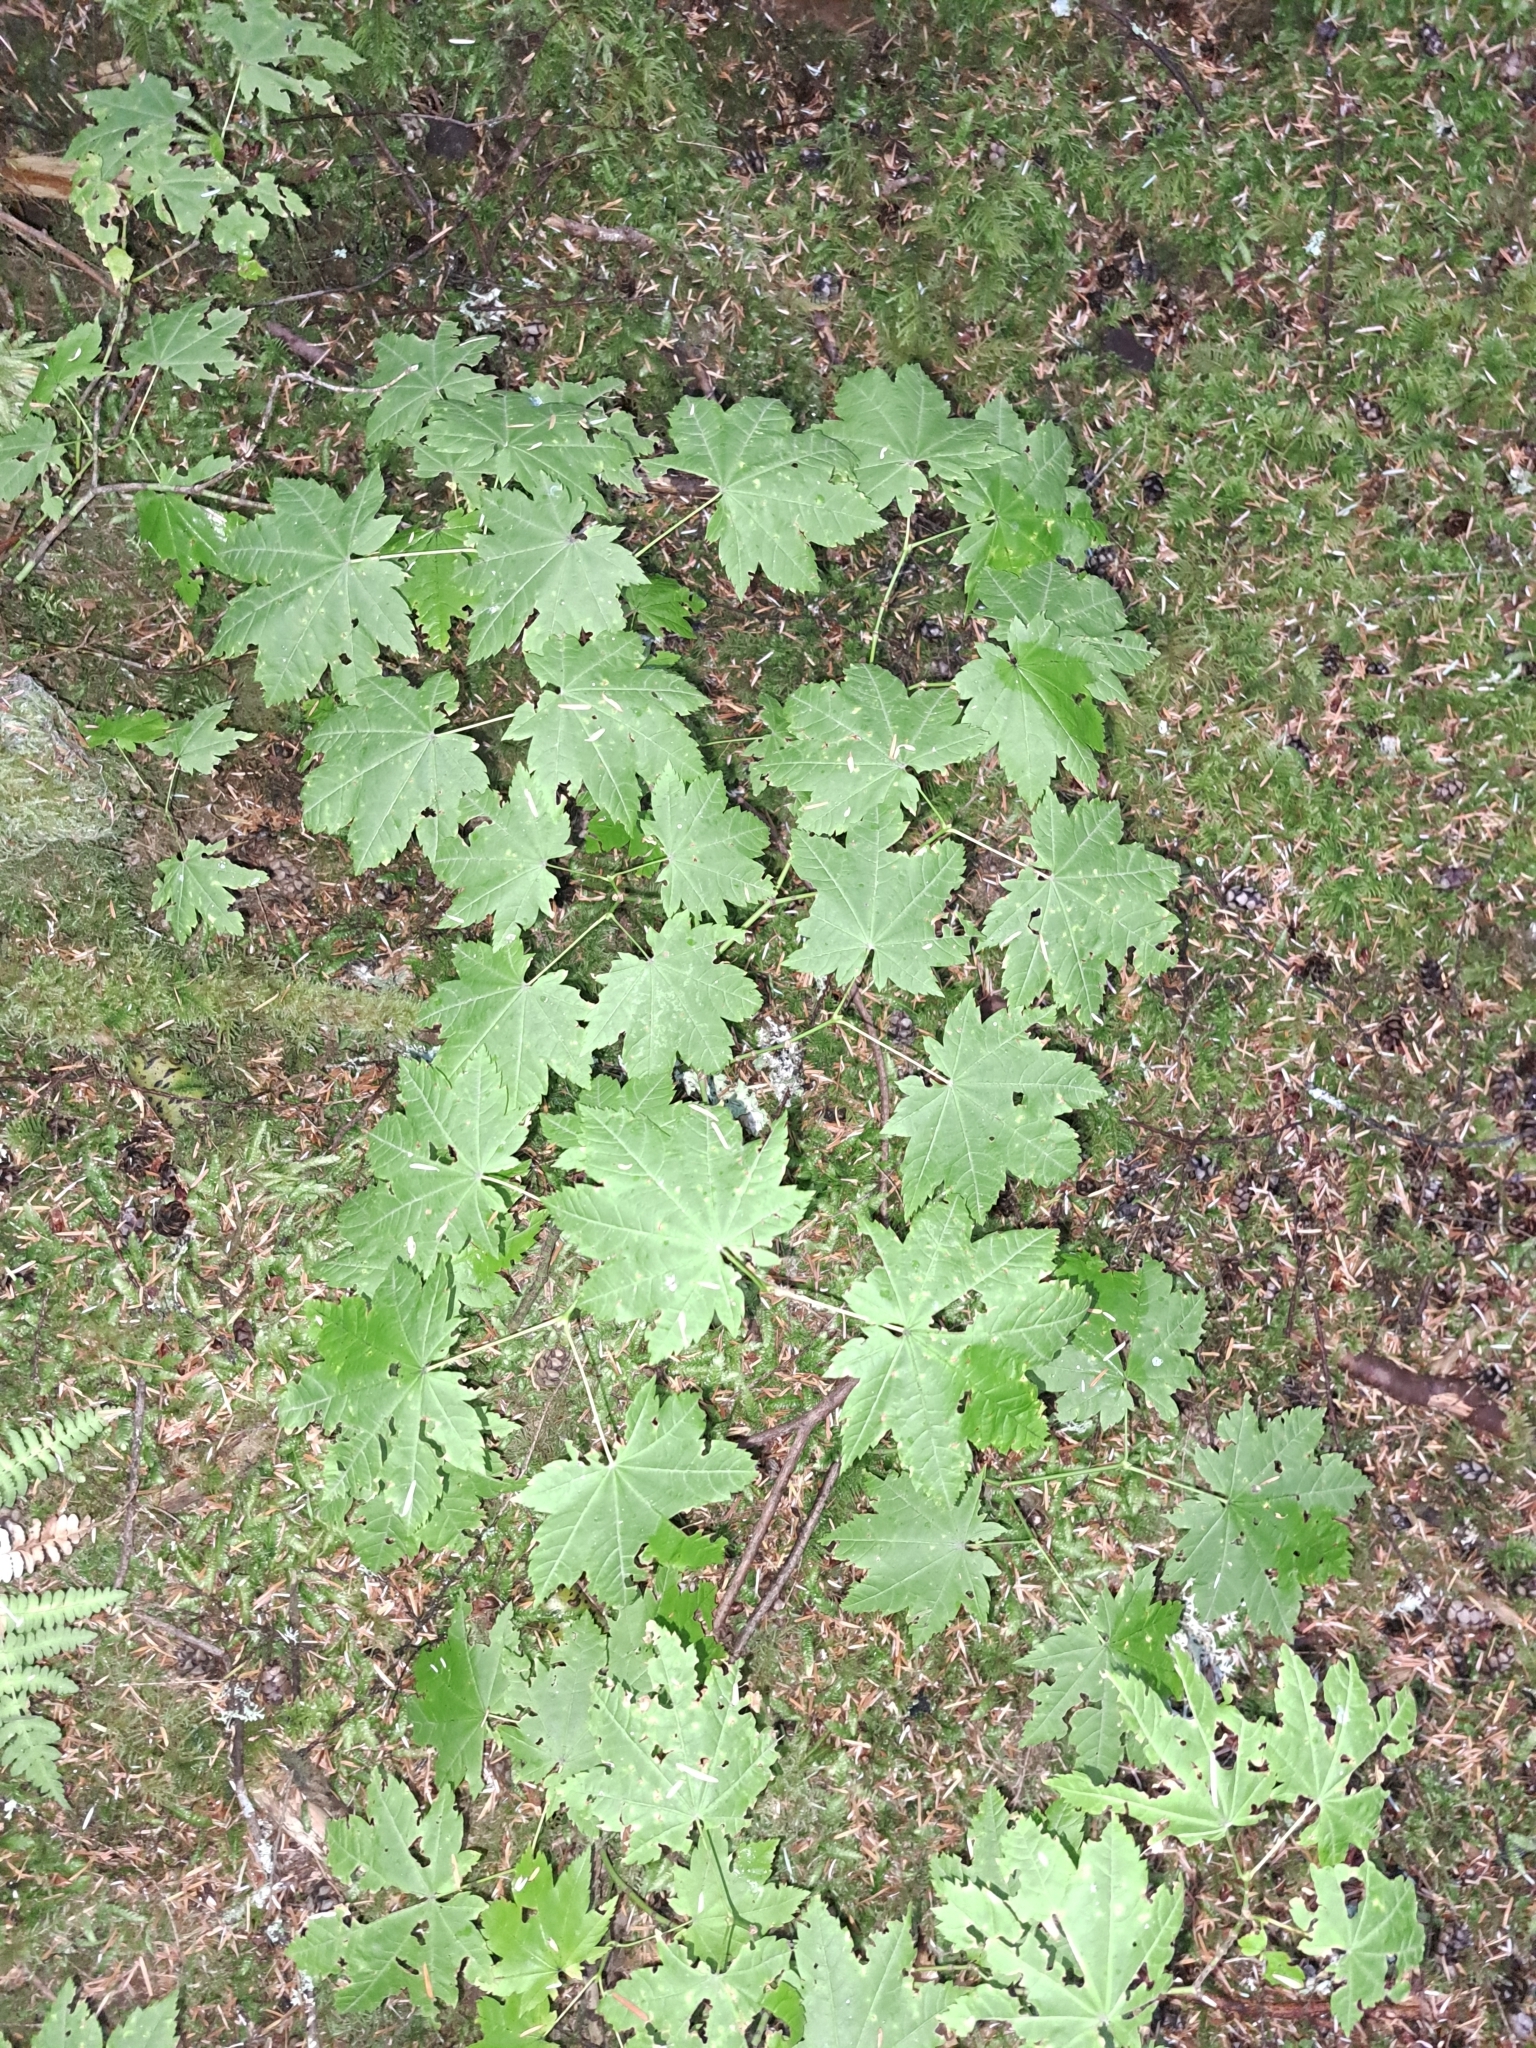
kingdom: Plantae
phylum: Tracheophyta
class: Magnoliopsida
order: Sapindales
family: Sapindaceae
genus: Acer
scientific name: Acer circinatum
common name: Vine maple
